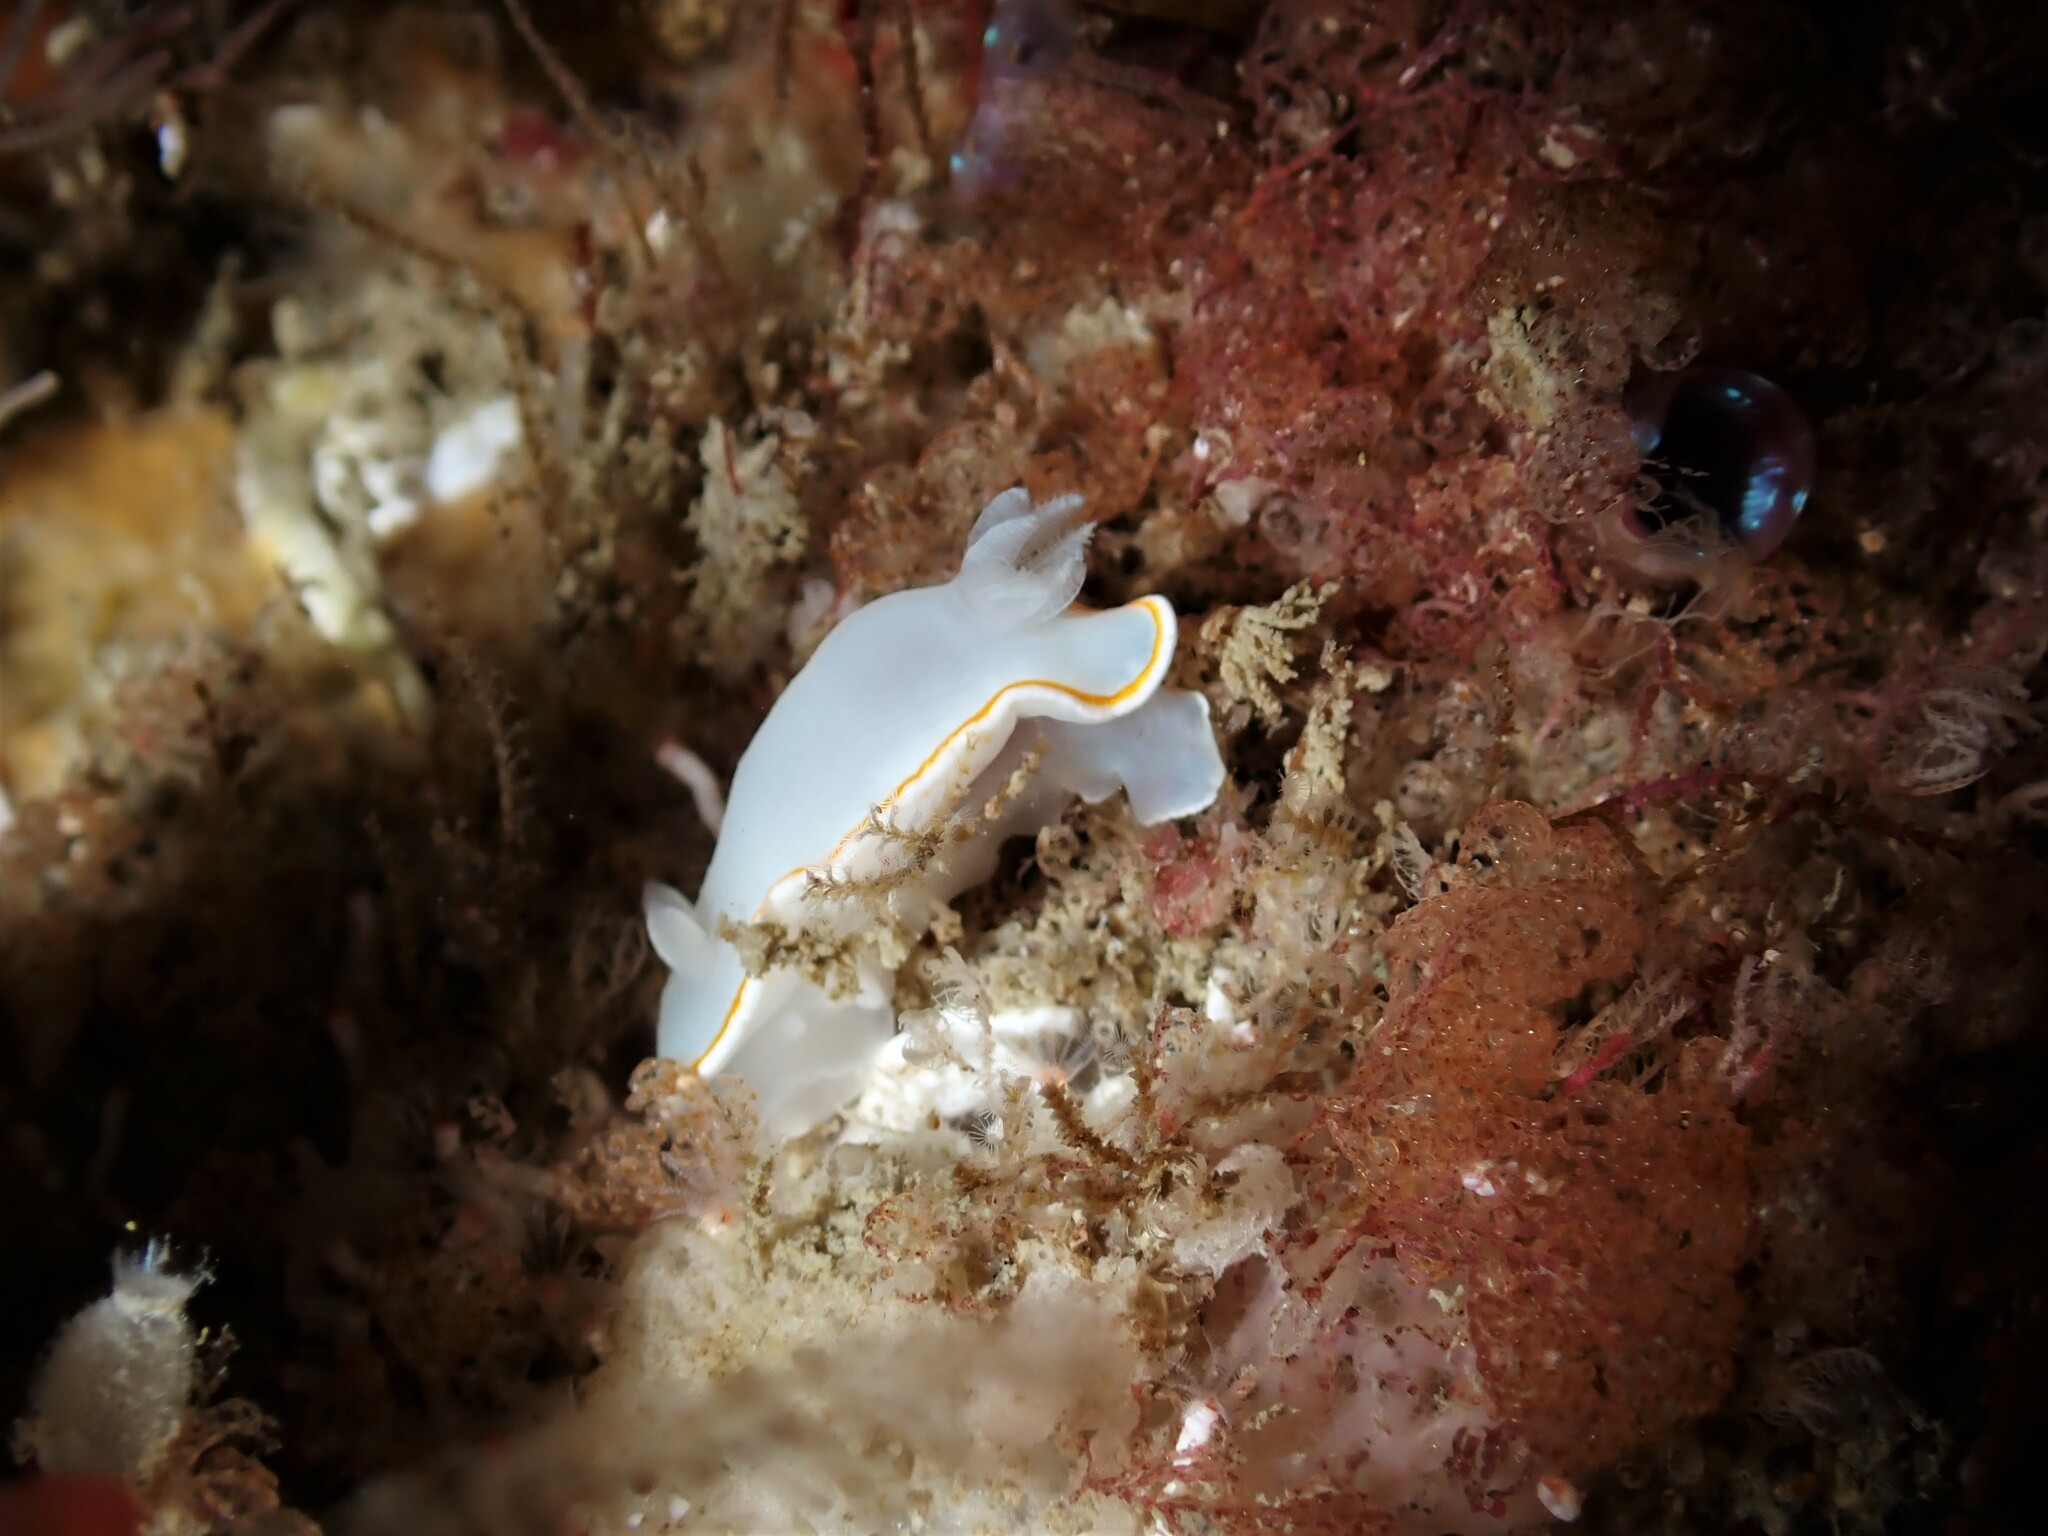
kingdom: Animalia
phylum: Mollusca
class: Gastropoda
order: Nudibranchia
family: Chromodorididae
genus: Goniobranchus
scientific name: Goniobranchus aureomarginatus
